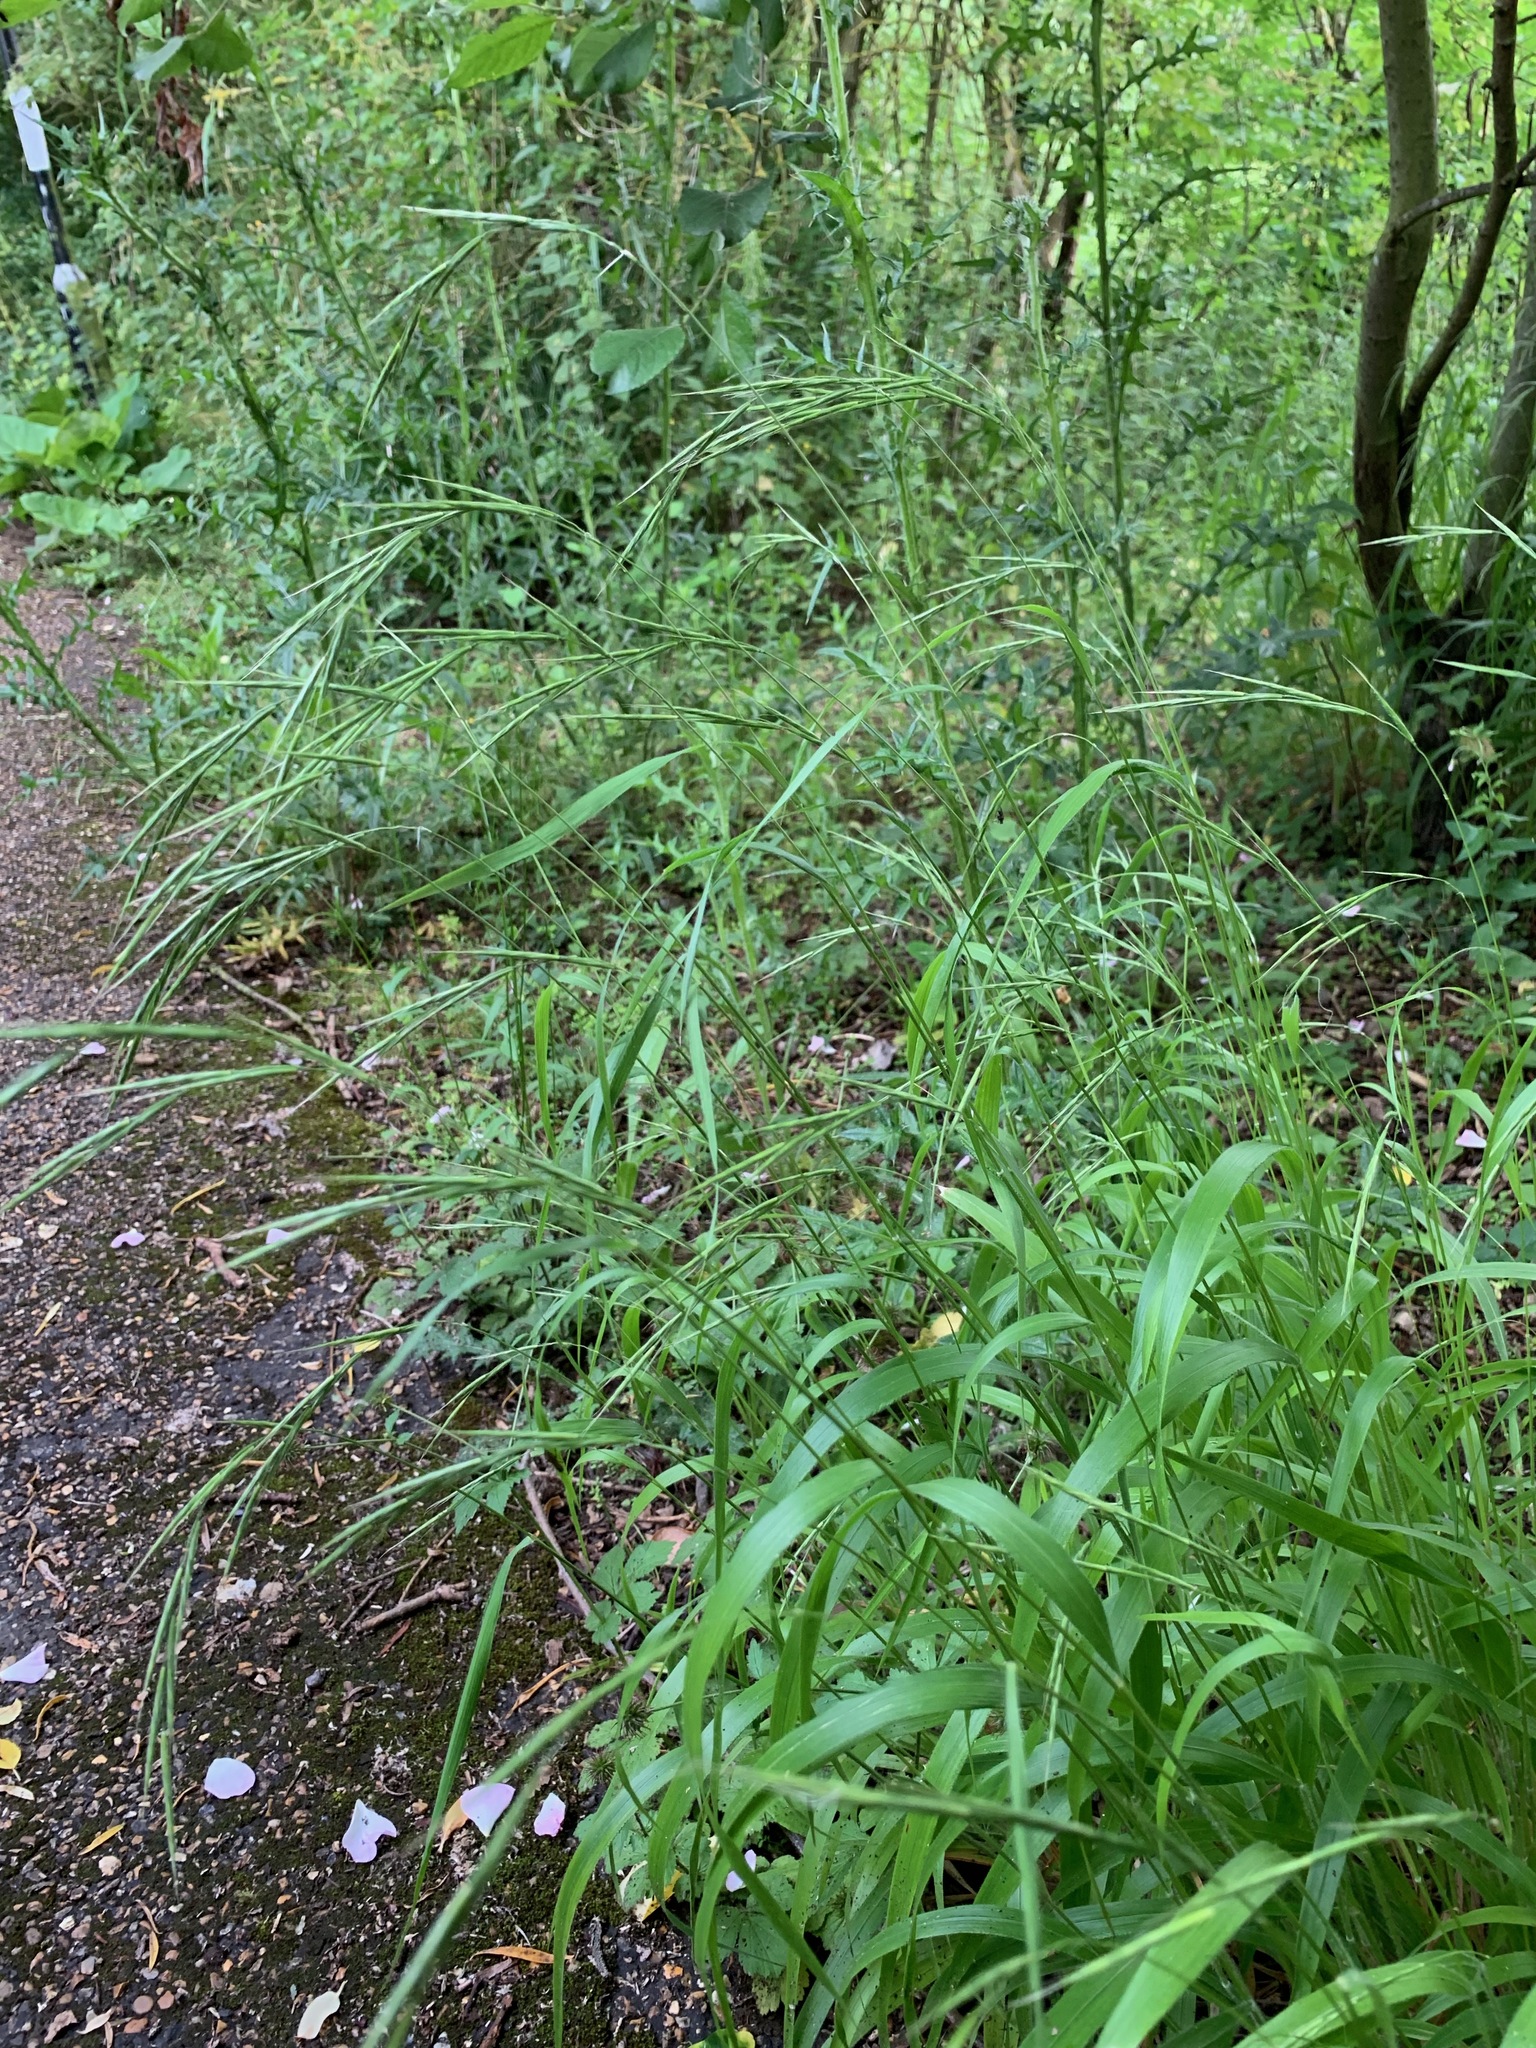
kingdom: Plantae
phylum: Tracheophyta
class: Liliopsida
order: Poales
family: Poaceae
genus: Brachypodium
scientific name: Brachypodium sylvaticum
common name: False-brome
